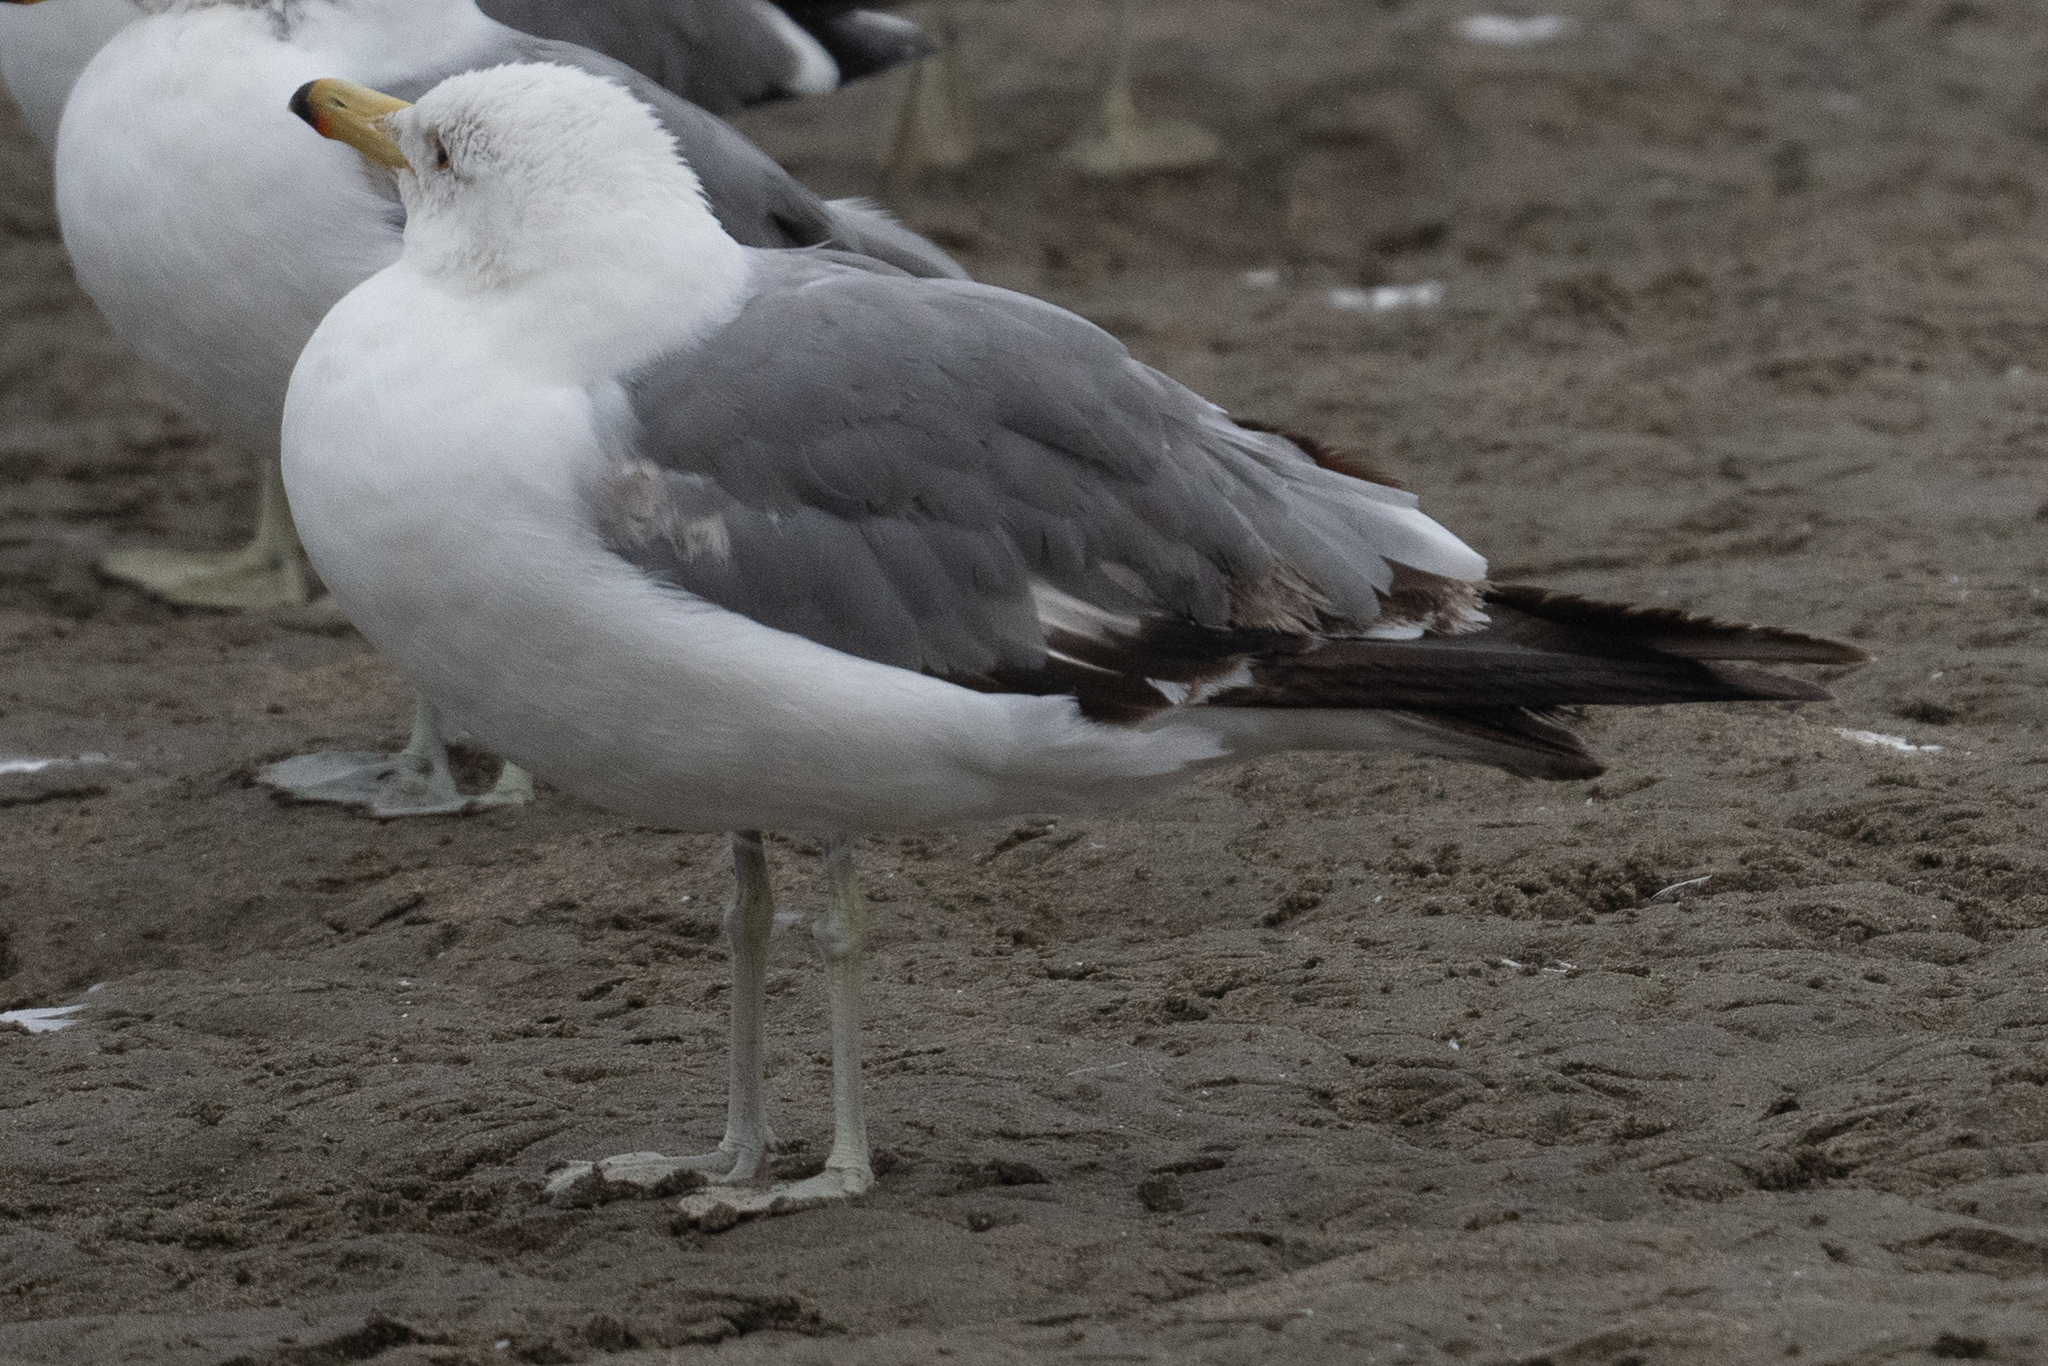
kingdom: Animalia
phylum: Chordata
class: Aves
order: Charadriiformes
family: Laridae
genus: Larus
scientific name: Larus californicus
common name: California gull
